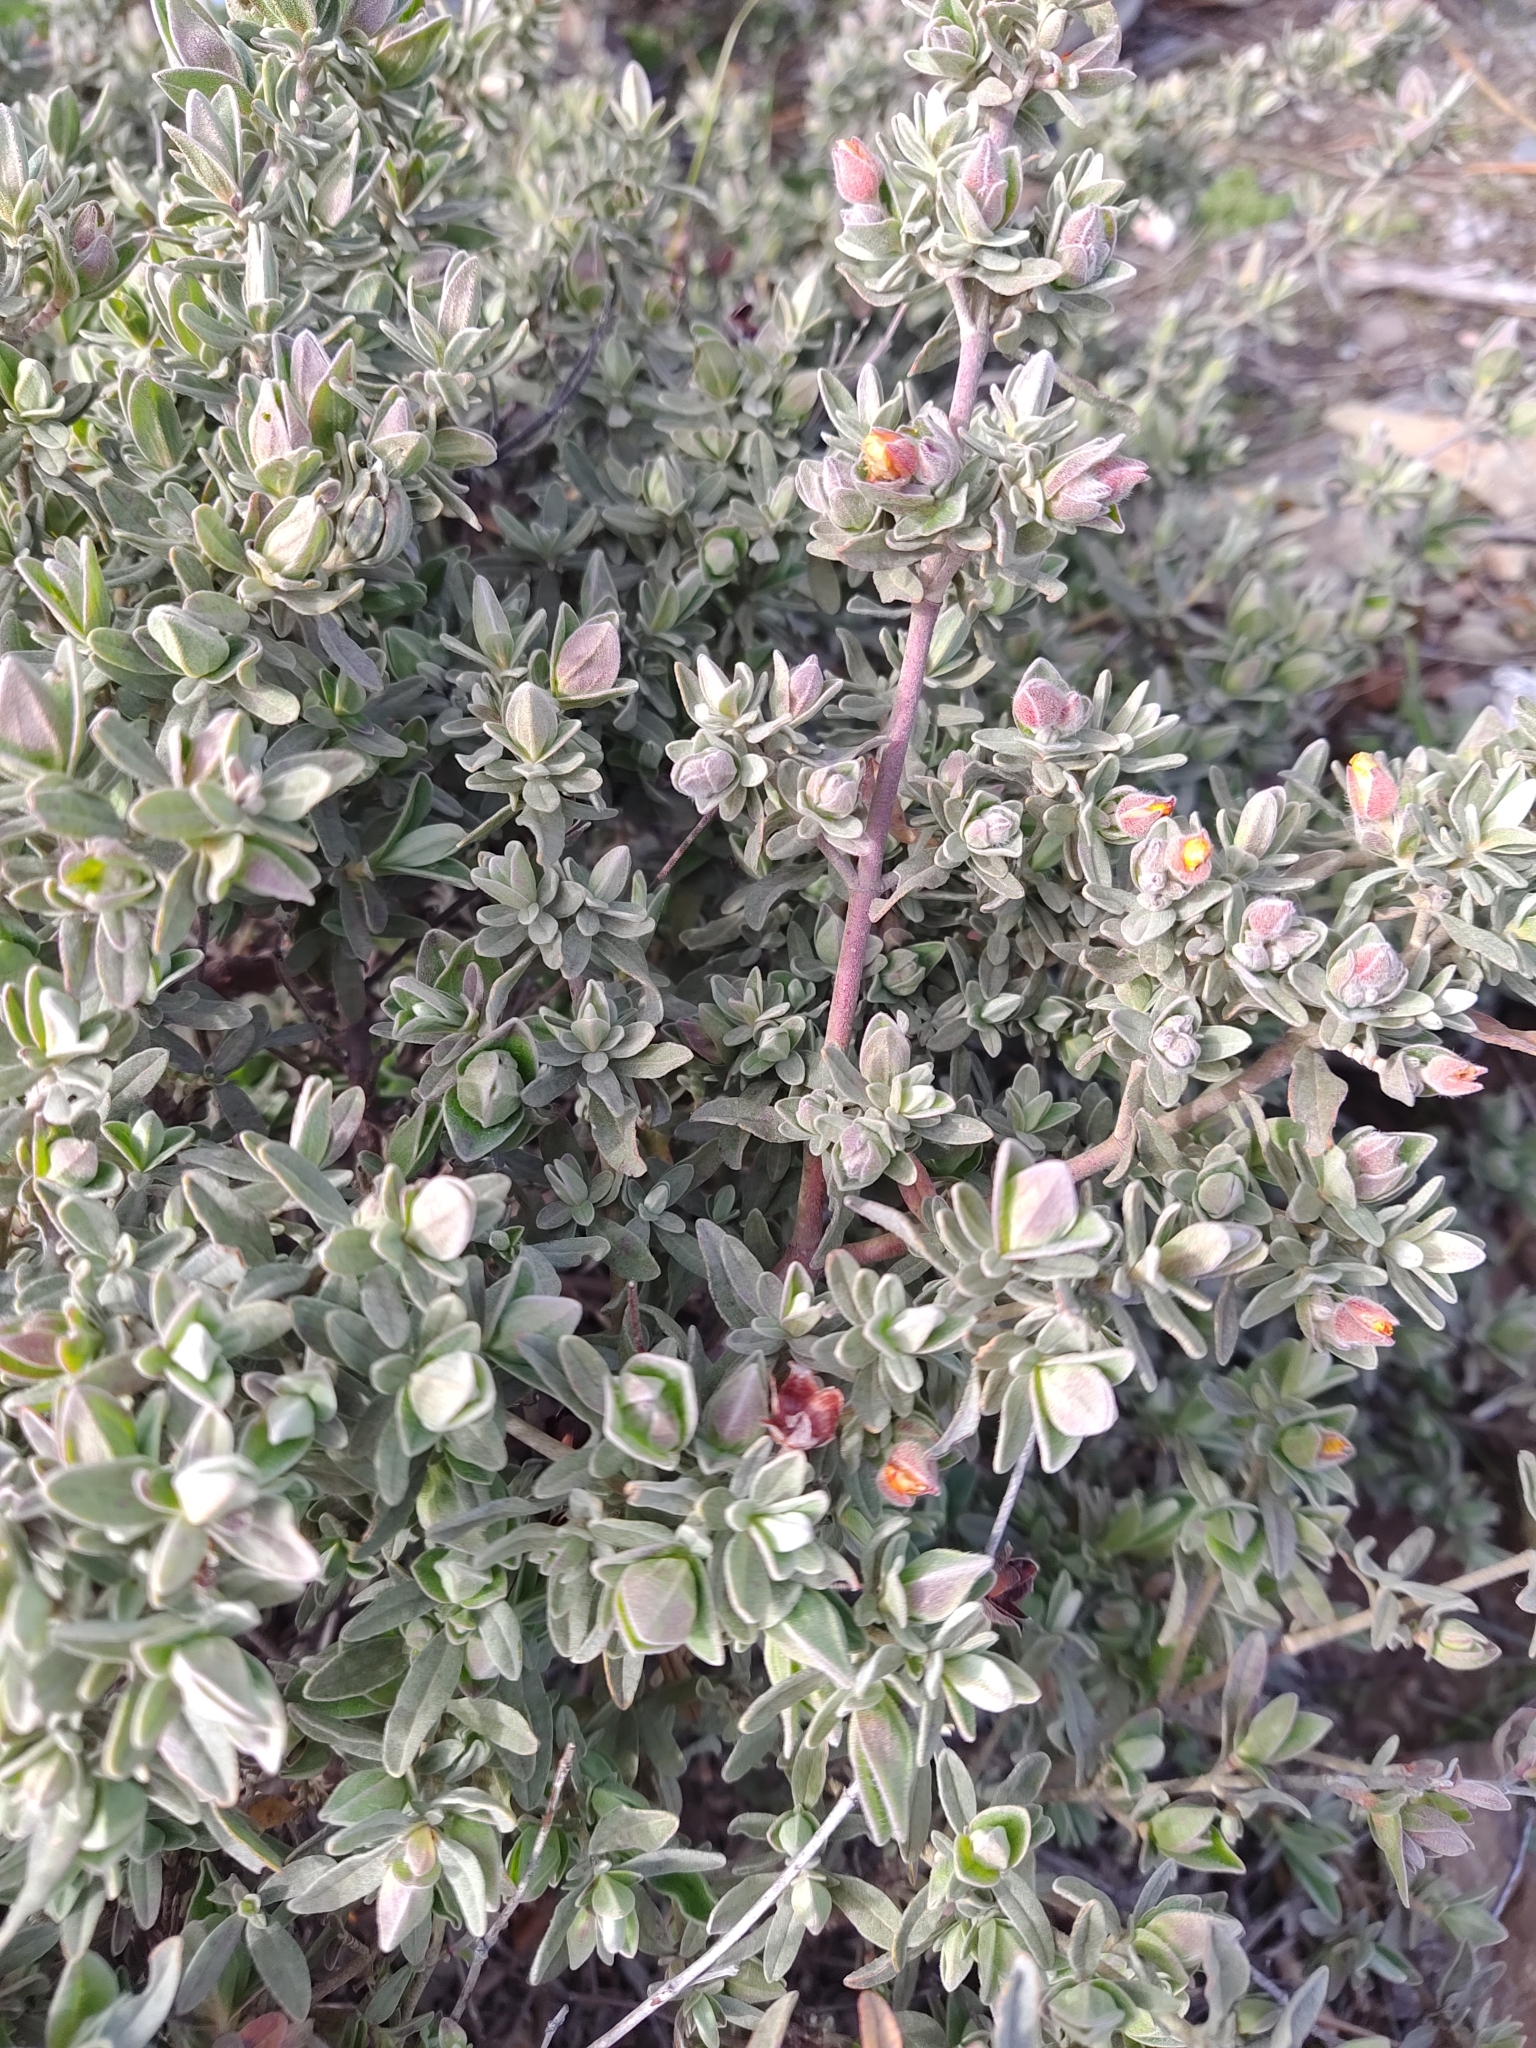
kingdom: Plantae
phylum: Tracheophyta
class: Magnoliopsida
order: Malvales
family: Cistaceae
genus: Halimium
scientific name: Halimium lasianthum
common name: Lisbon false sun-rose
